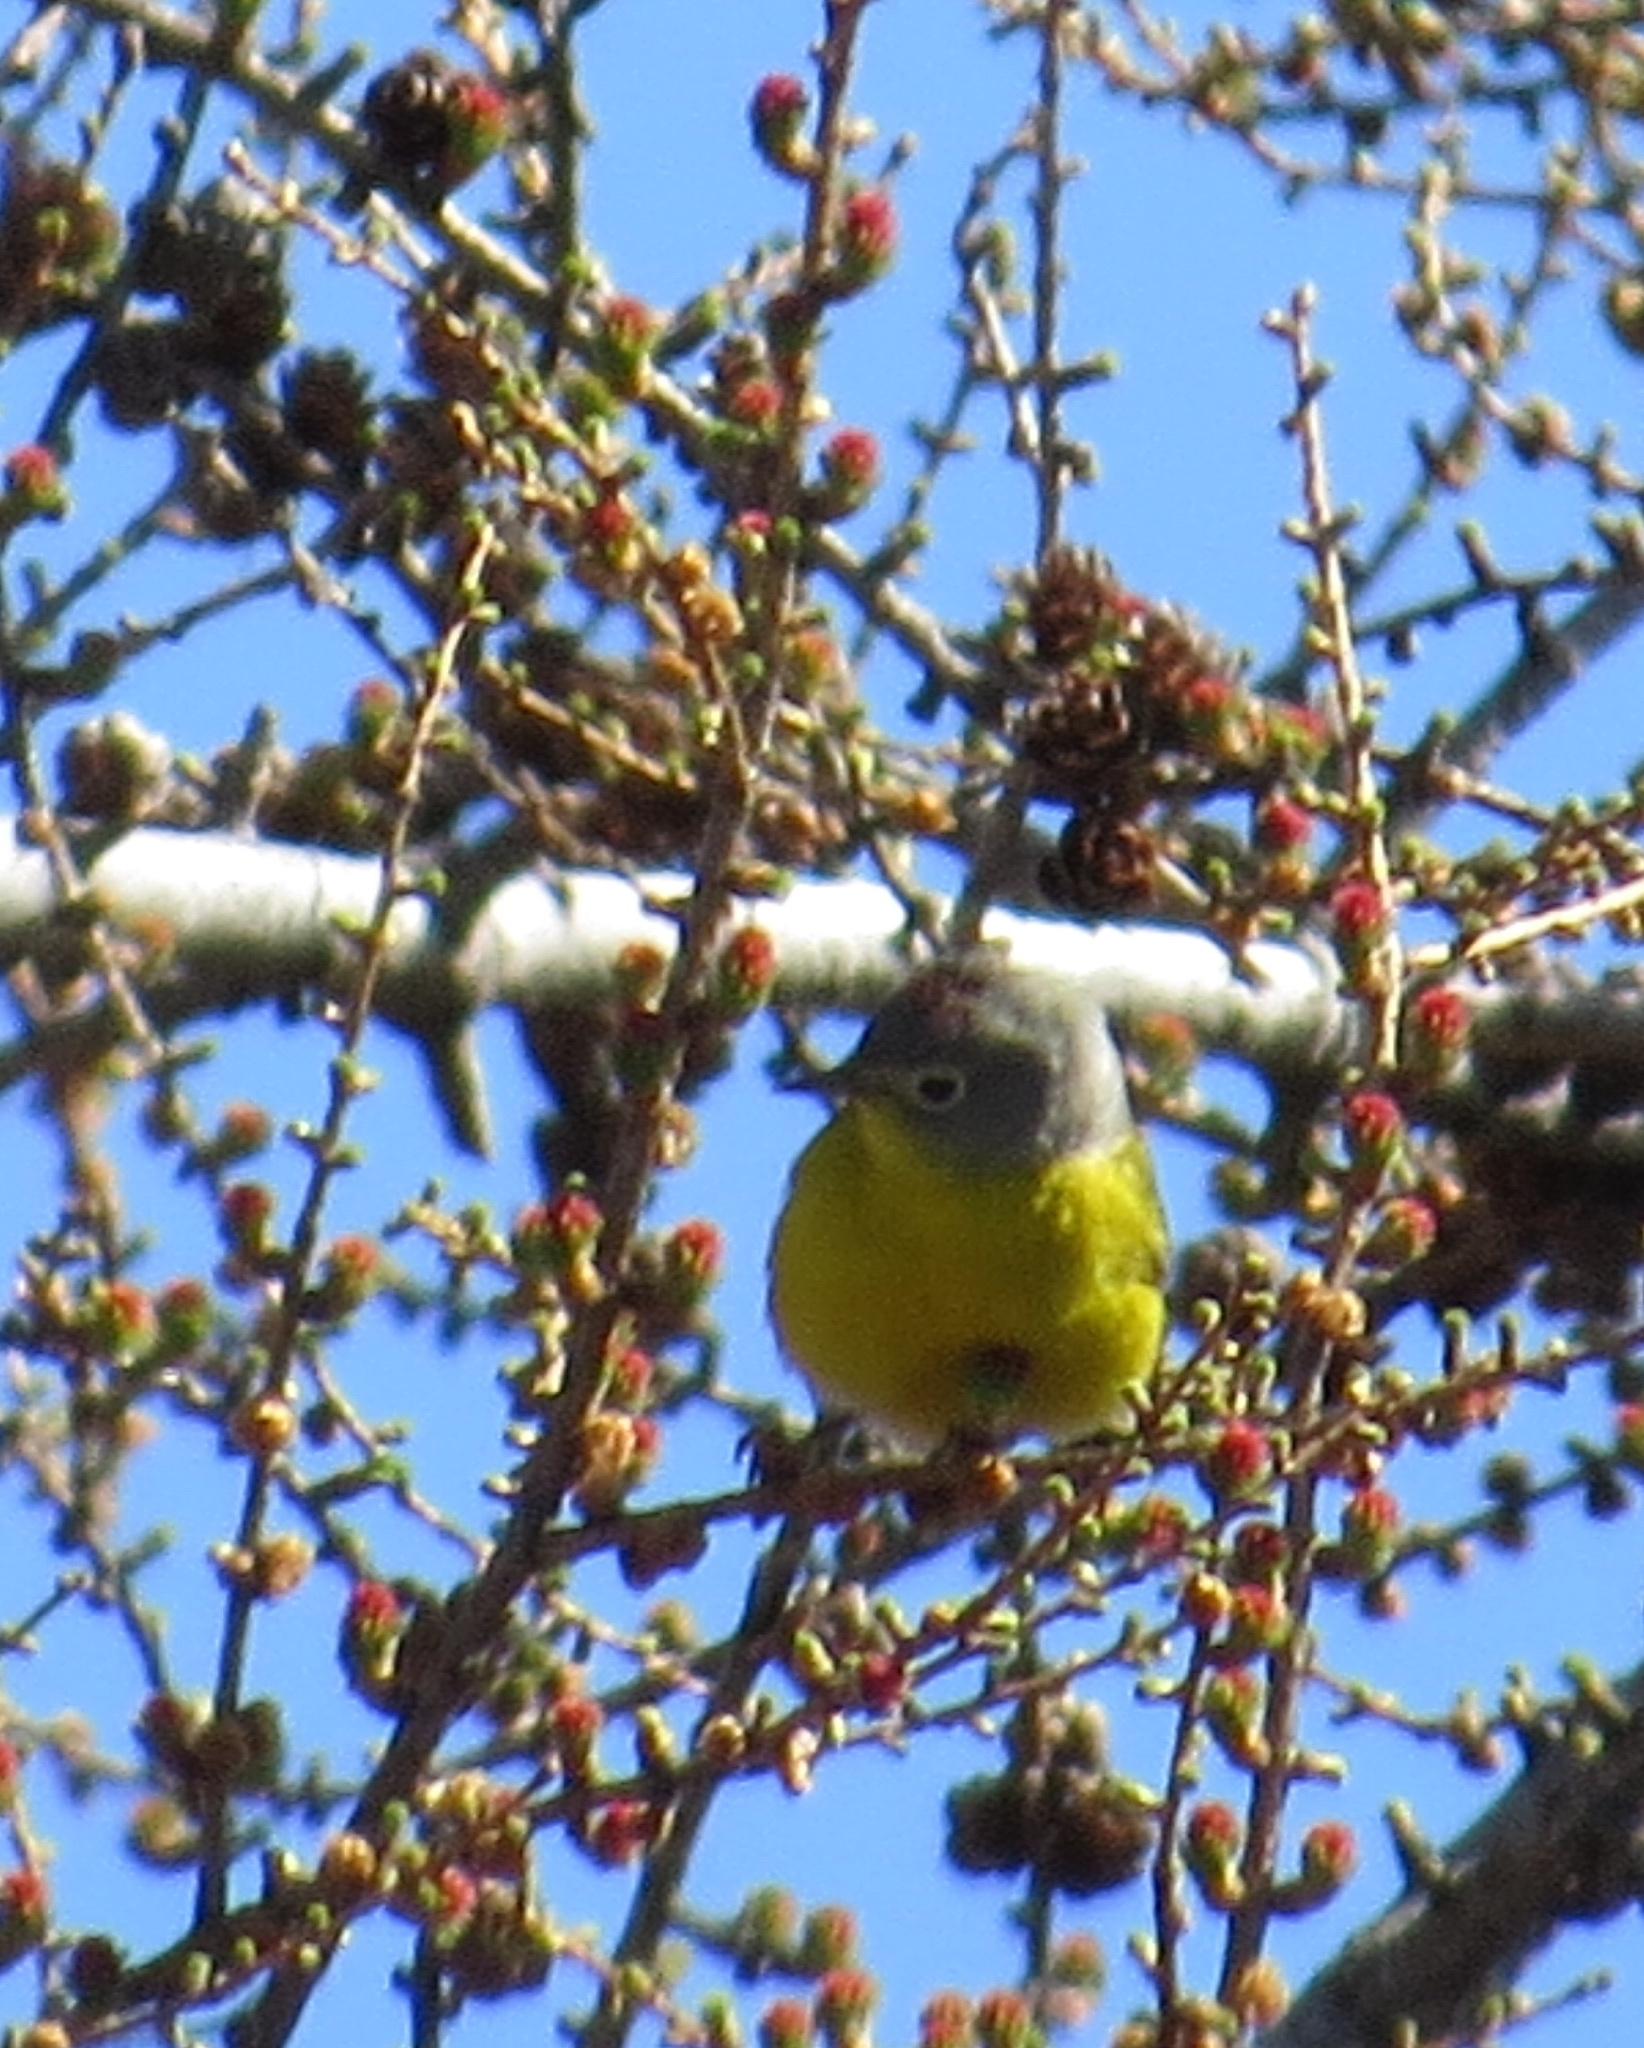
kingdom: Animalia
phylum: Chordata
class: Aves
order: Passeriformes
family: Parulidae
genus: Leiothlypis
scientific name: Leiothlypis ruficapilla
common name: Nashville warbler
